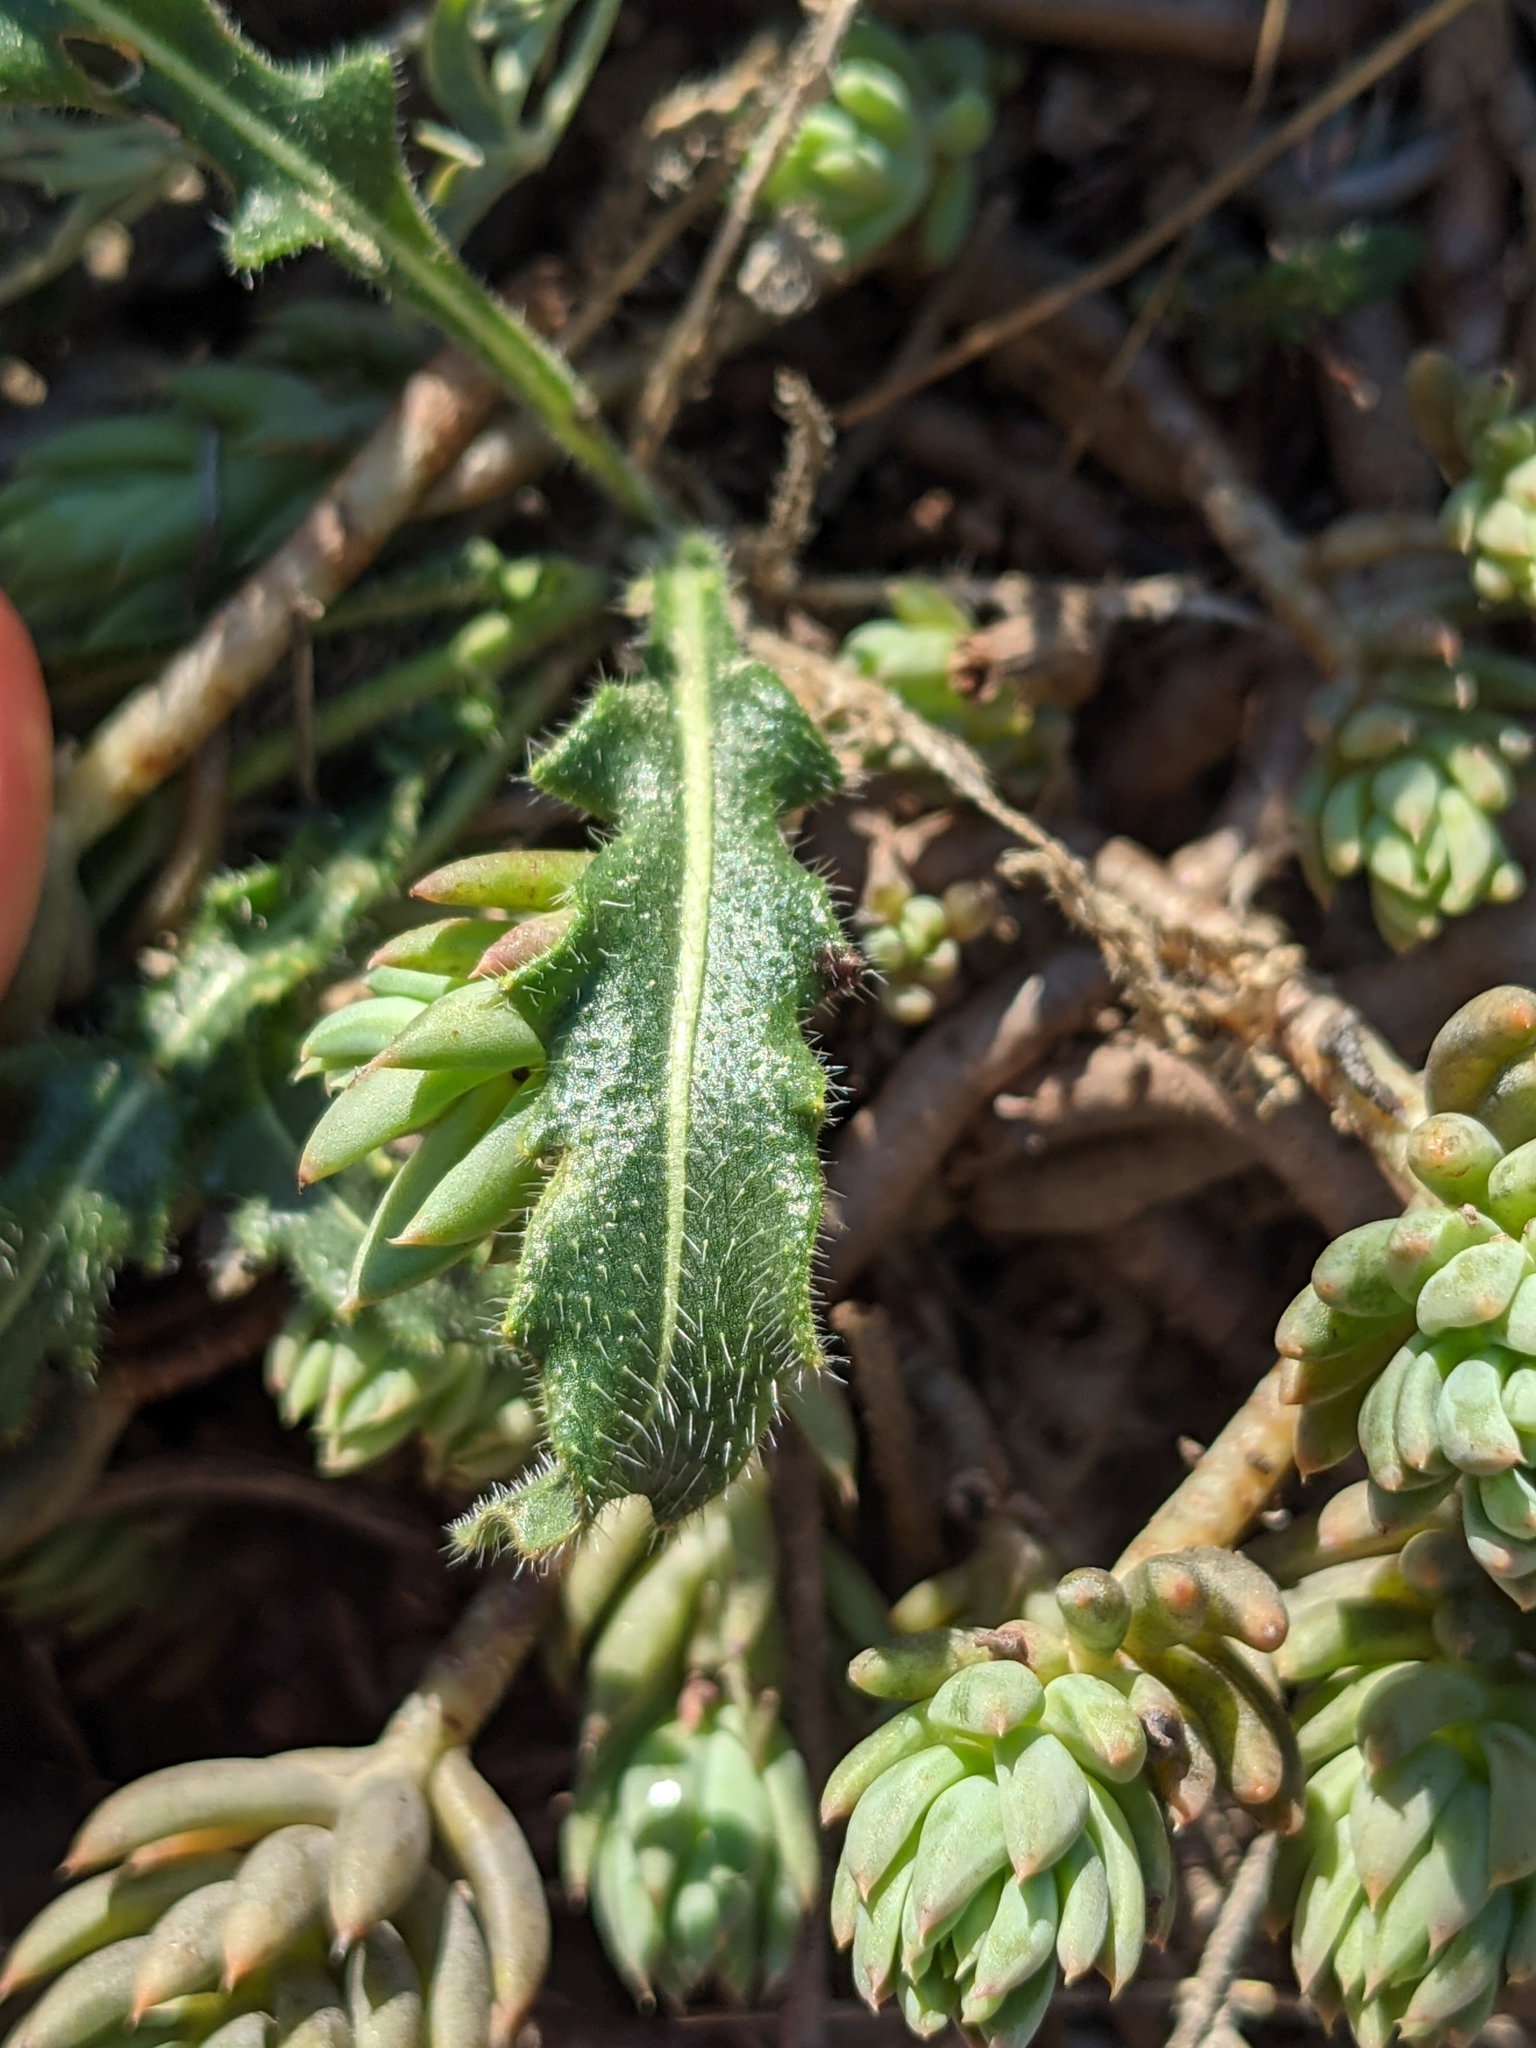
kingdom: Plantae
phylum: Tracheophyta
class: Magnoliopsida
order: Brassicales
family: Brassicaceae
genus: Biscutella
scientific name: Biscutella laevigata
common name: Buckler mustard
